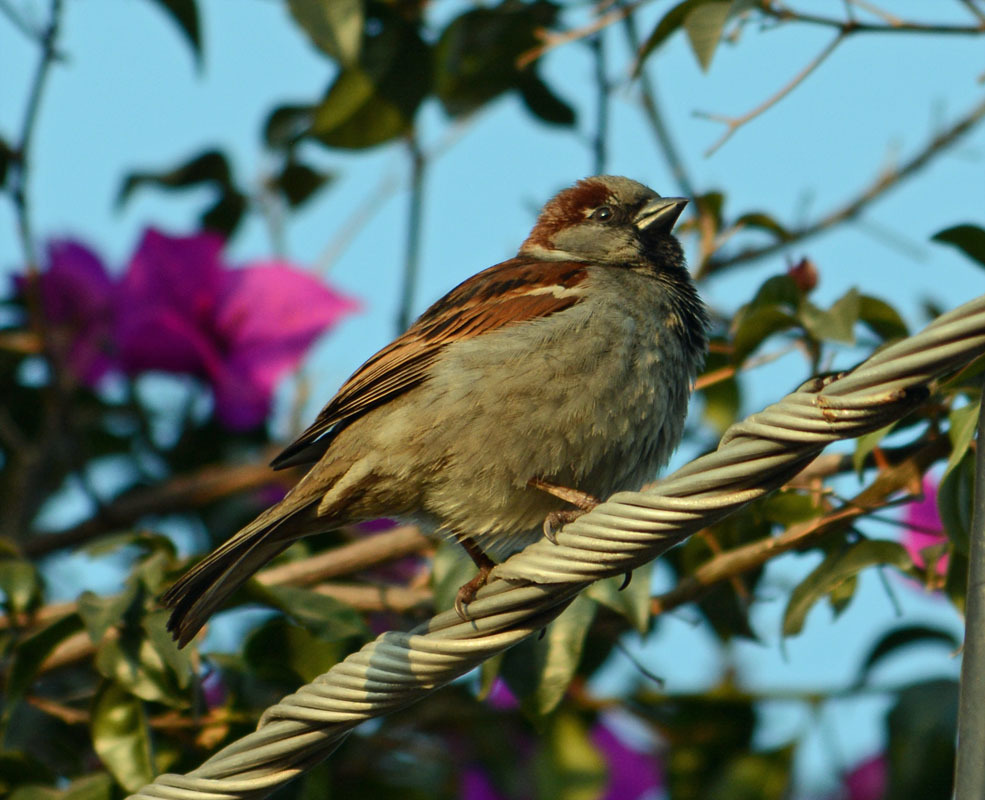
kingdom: Animalia
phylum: Chordata
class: Aves
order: Passeriformes
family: Passeridae
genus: Passer
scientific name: Passer domesticus
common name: House sparrow
